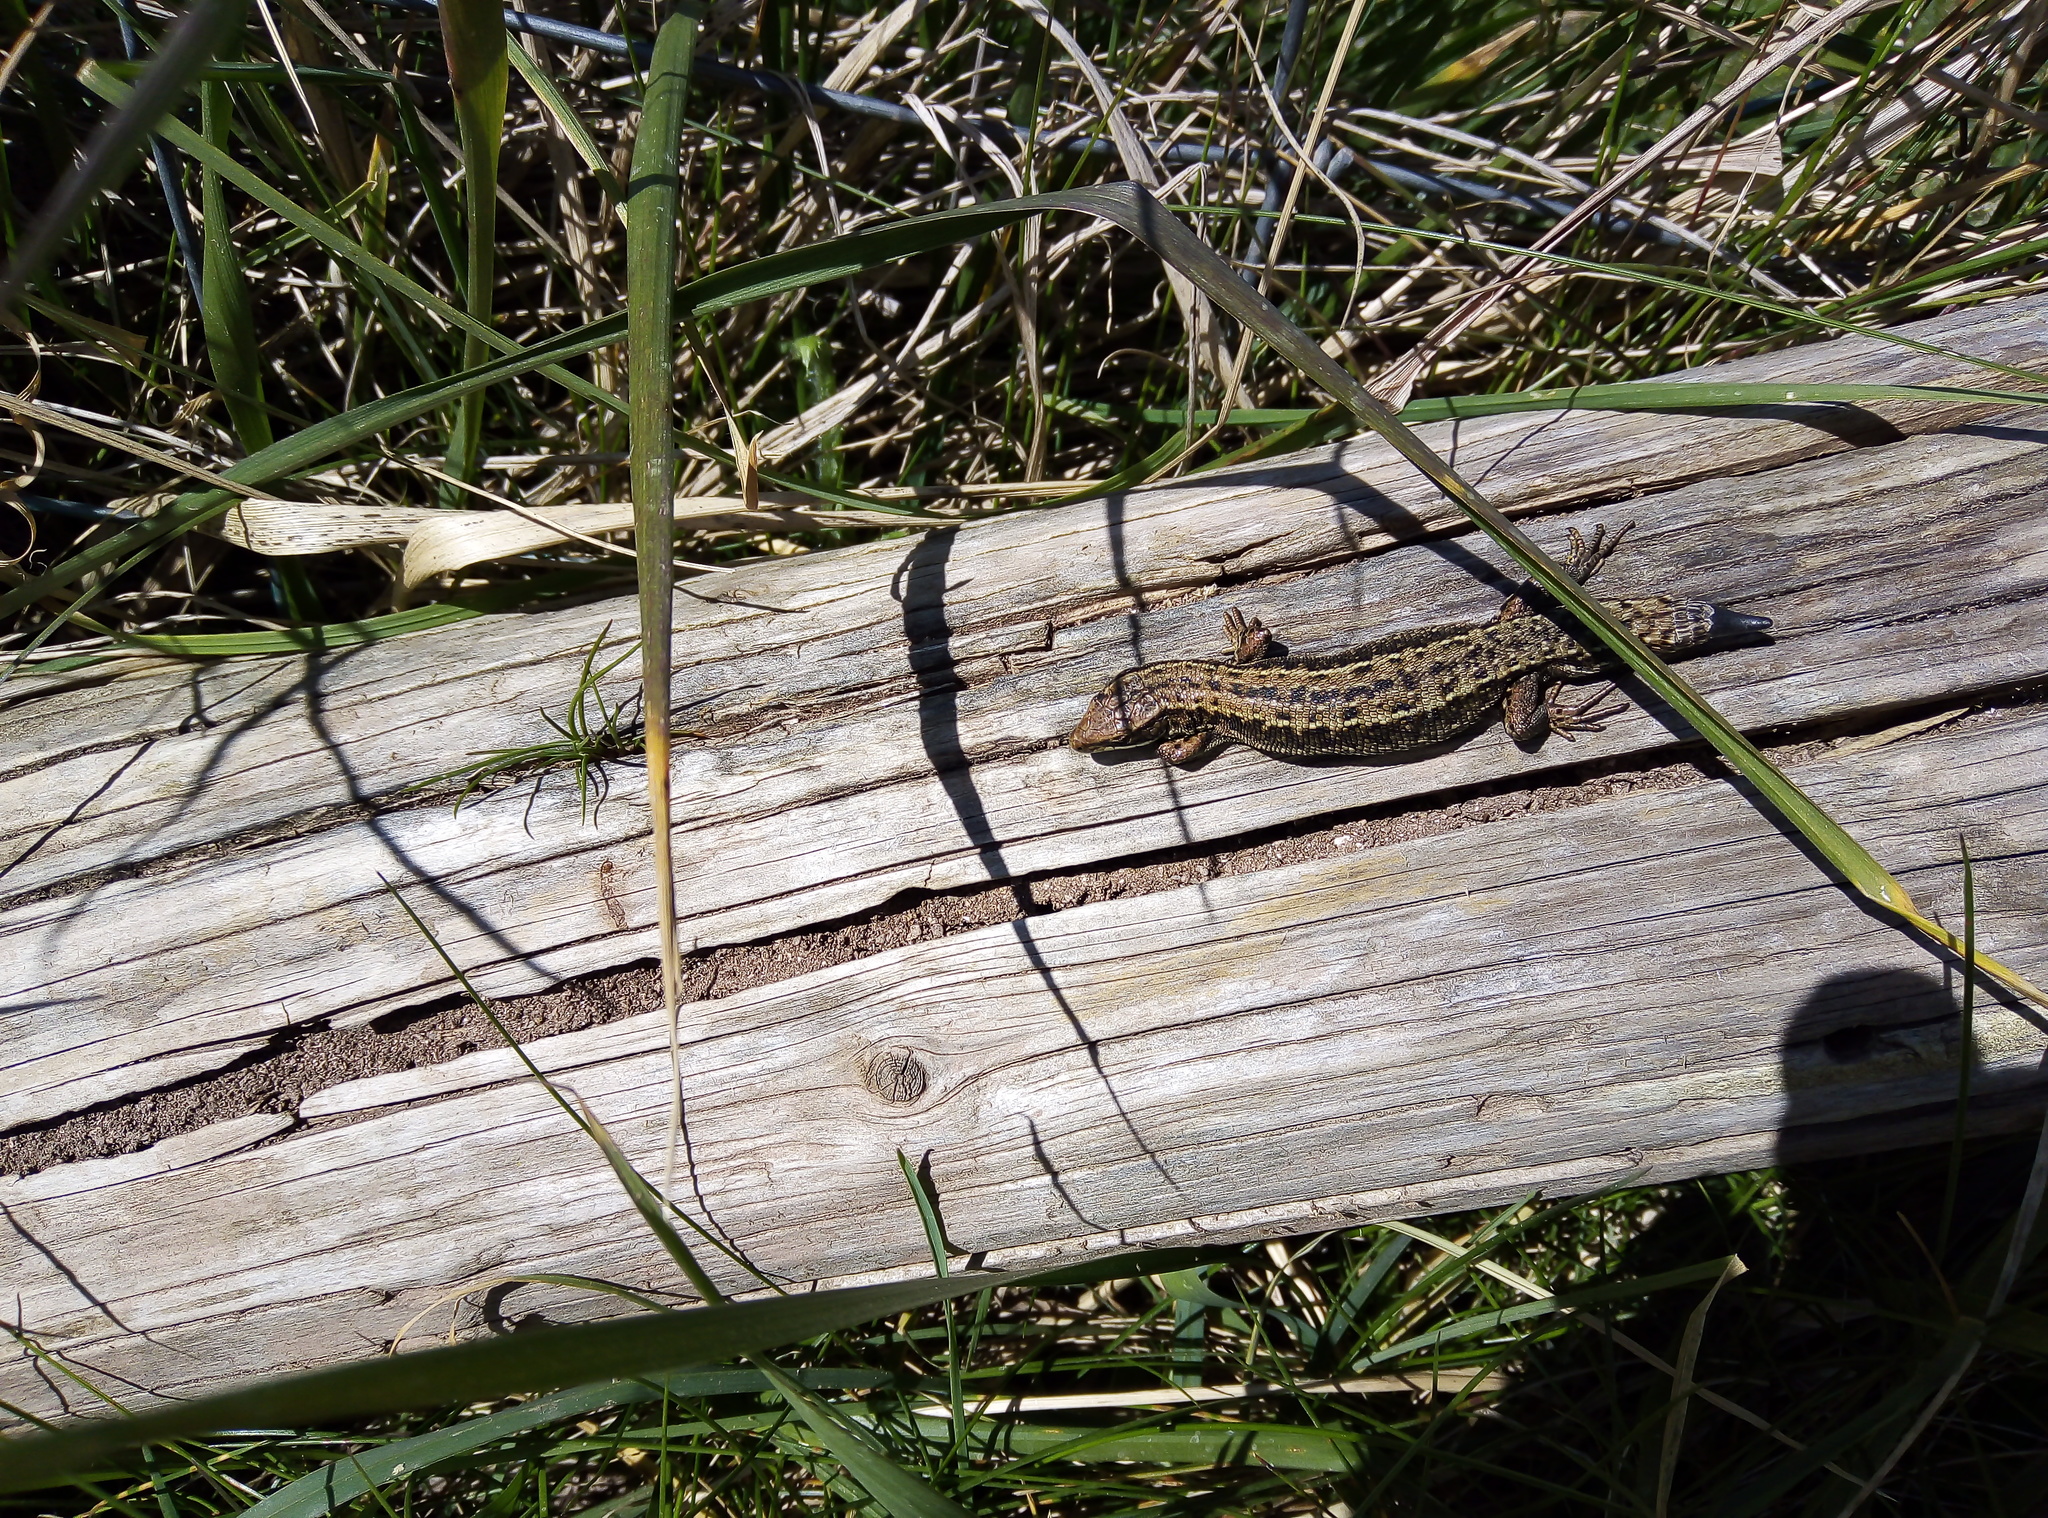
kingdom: Animalia
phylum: Chordata
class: Squamata
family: Lacertidae
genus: Zootoca
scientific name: Zootoca vivipara
